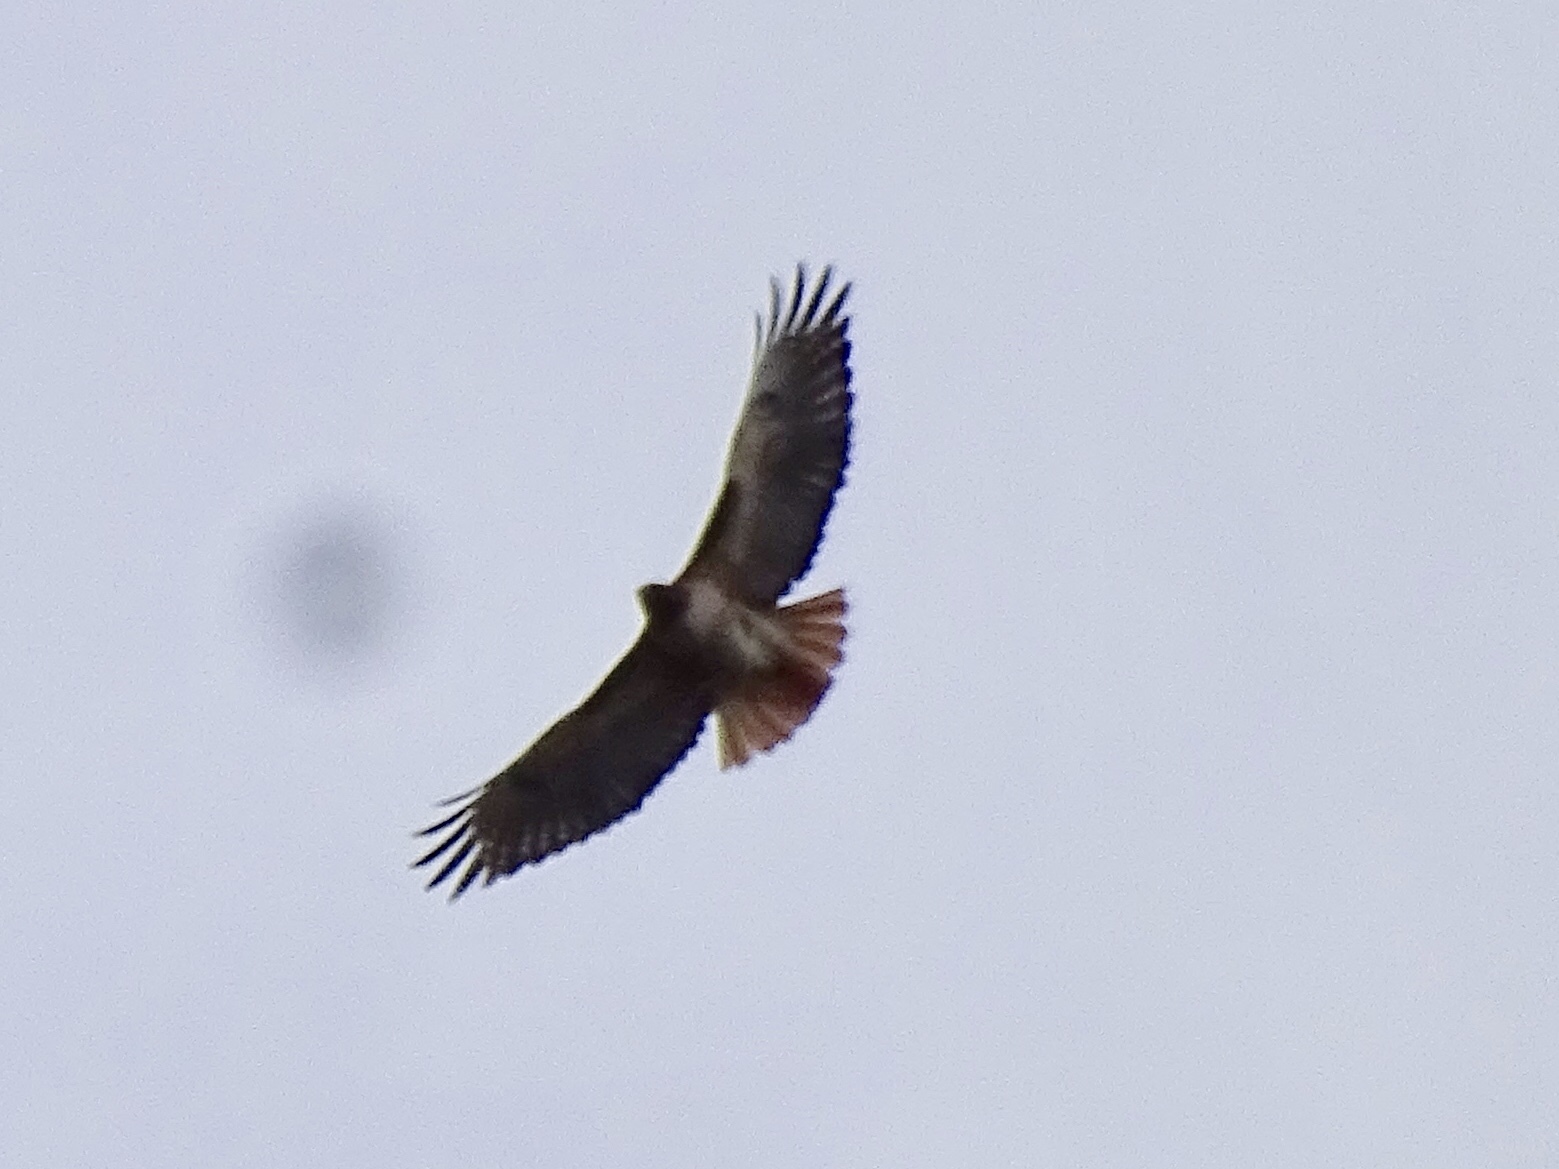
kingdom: Animalia
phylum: Chordata
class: Aves
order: Accipitriformes
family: Accipitridae
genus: Buteo
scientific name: Buteo jamaicensis
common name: Red-tailed hawk
